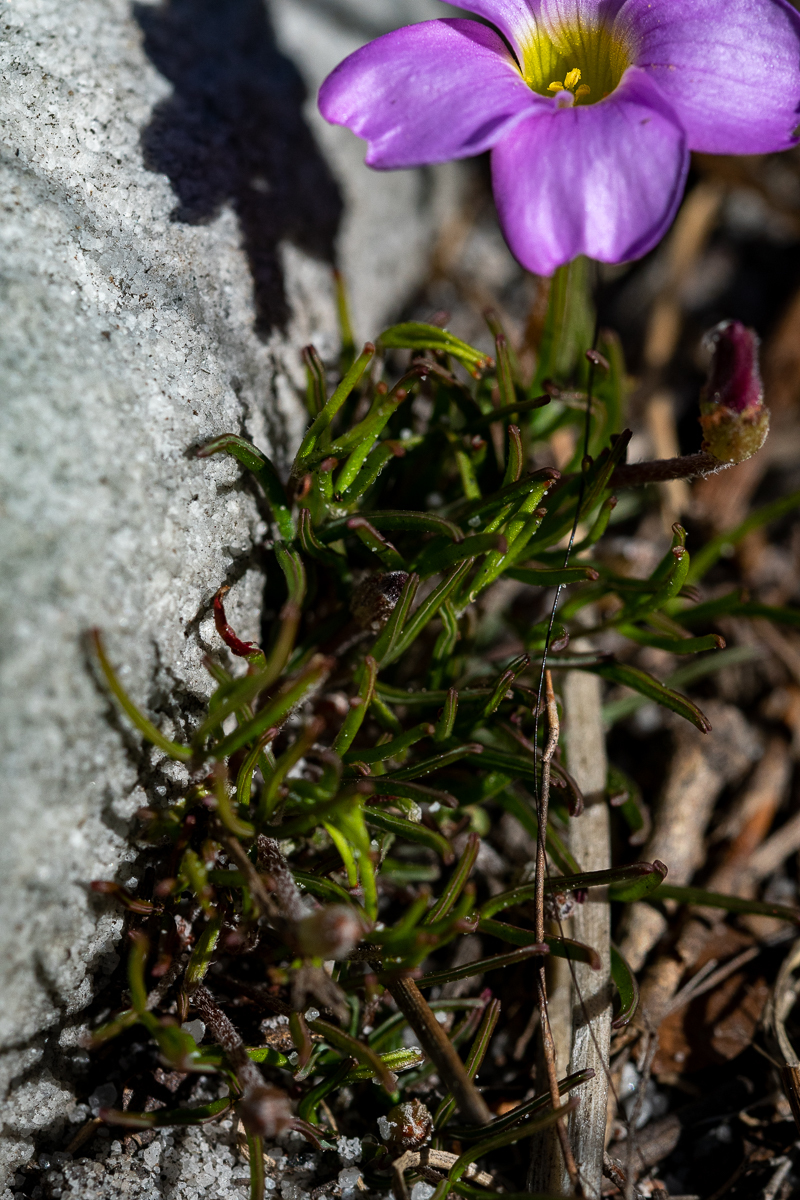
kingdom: Plantae
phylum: Tracheophyta
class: Magnoliopsida
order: Oxalidales
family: Oxalidaceae
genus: Oxalis
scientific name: Oxalis polyphylla
